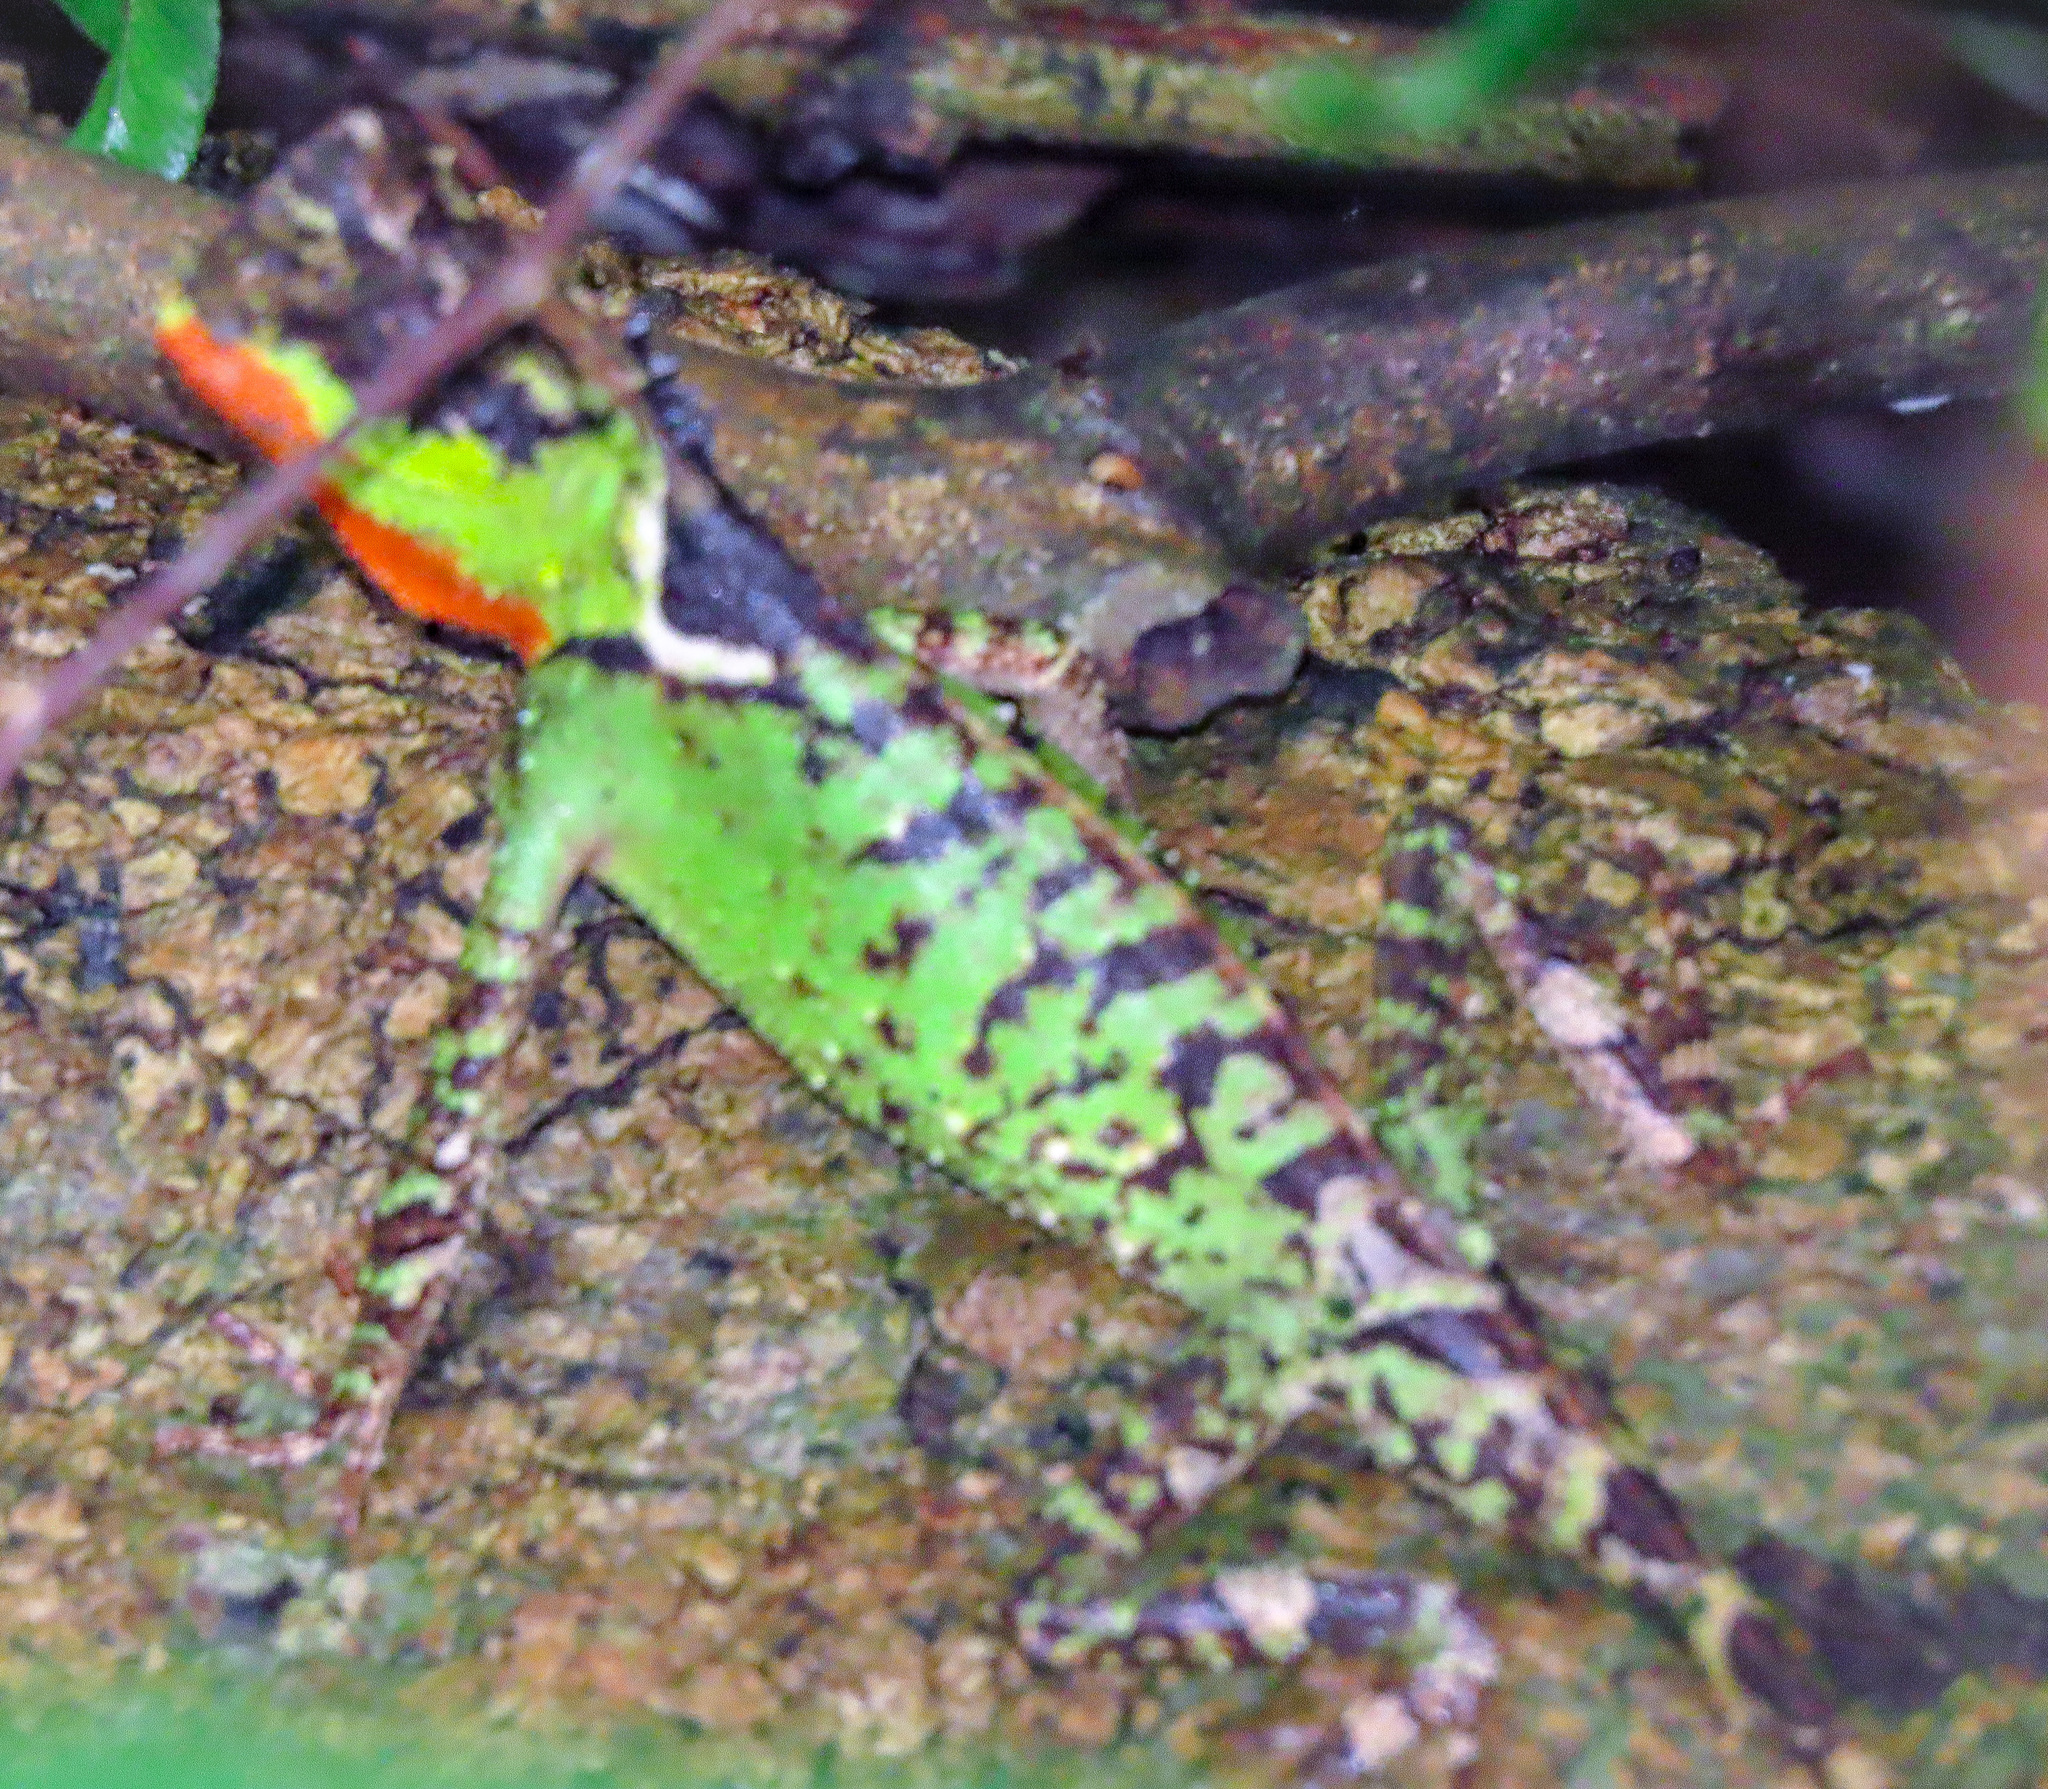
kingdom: Animalia
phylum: Chordata
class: Squamata
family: Agamidae
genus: Acanthosaura
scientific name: Acanthosaura rubrilabris
